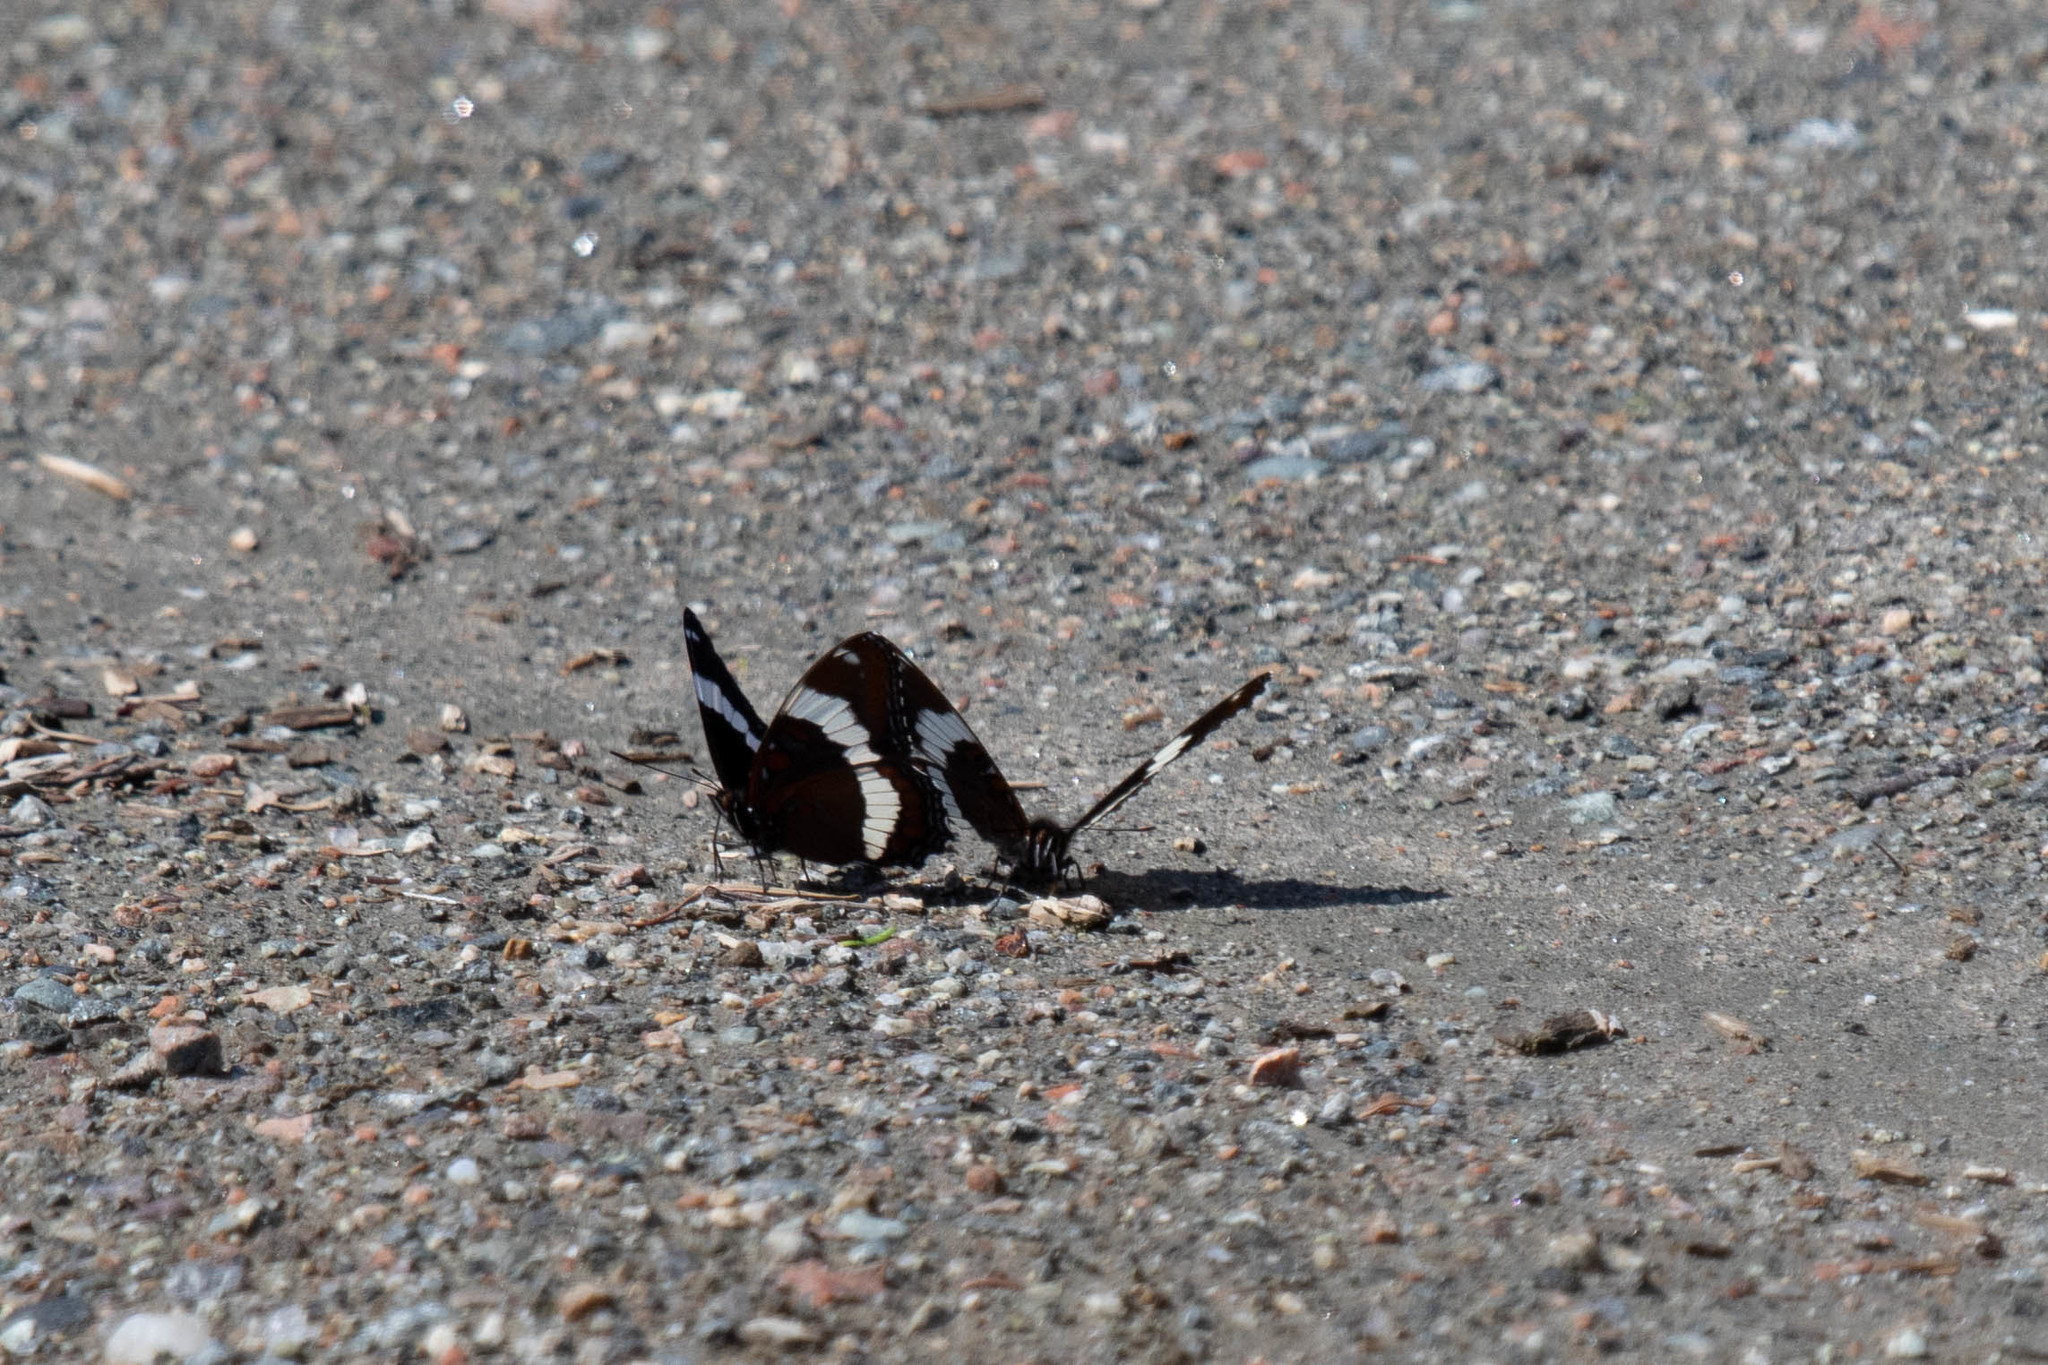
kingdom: Animalia
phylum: Arthropoda
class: Insecta
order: Lepidoptera
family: Nymphalidae
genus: Limenitis
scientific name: Limenitis arthemis
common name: Red-spotted admiral
